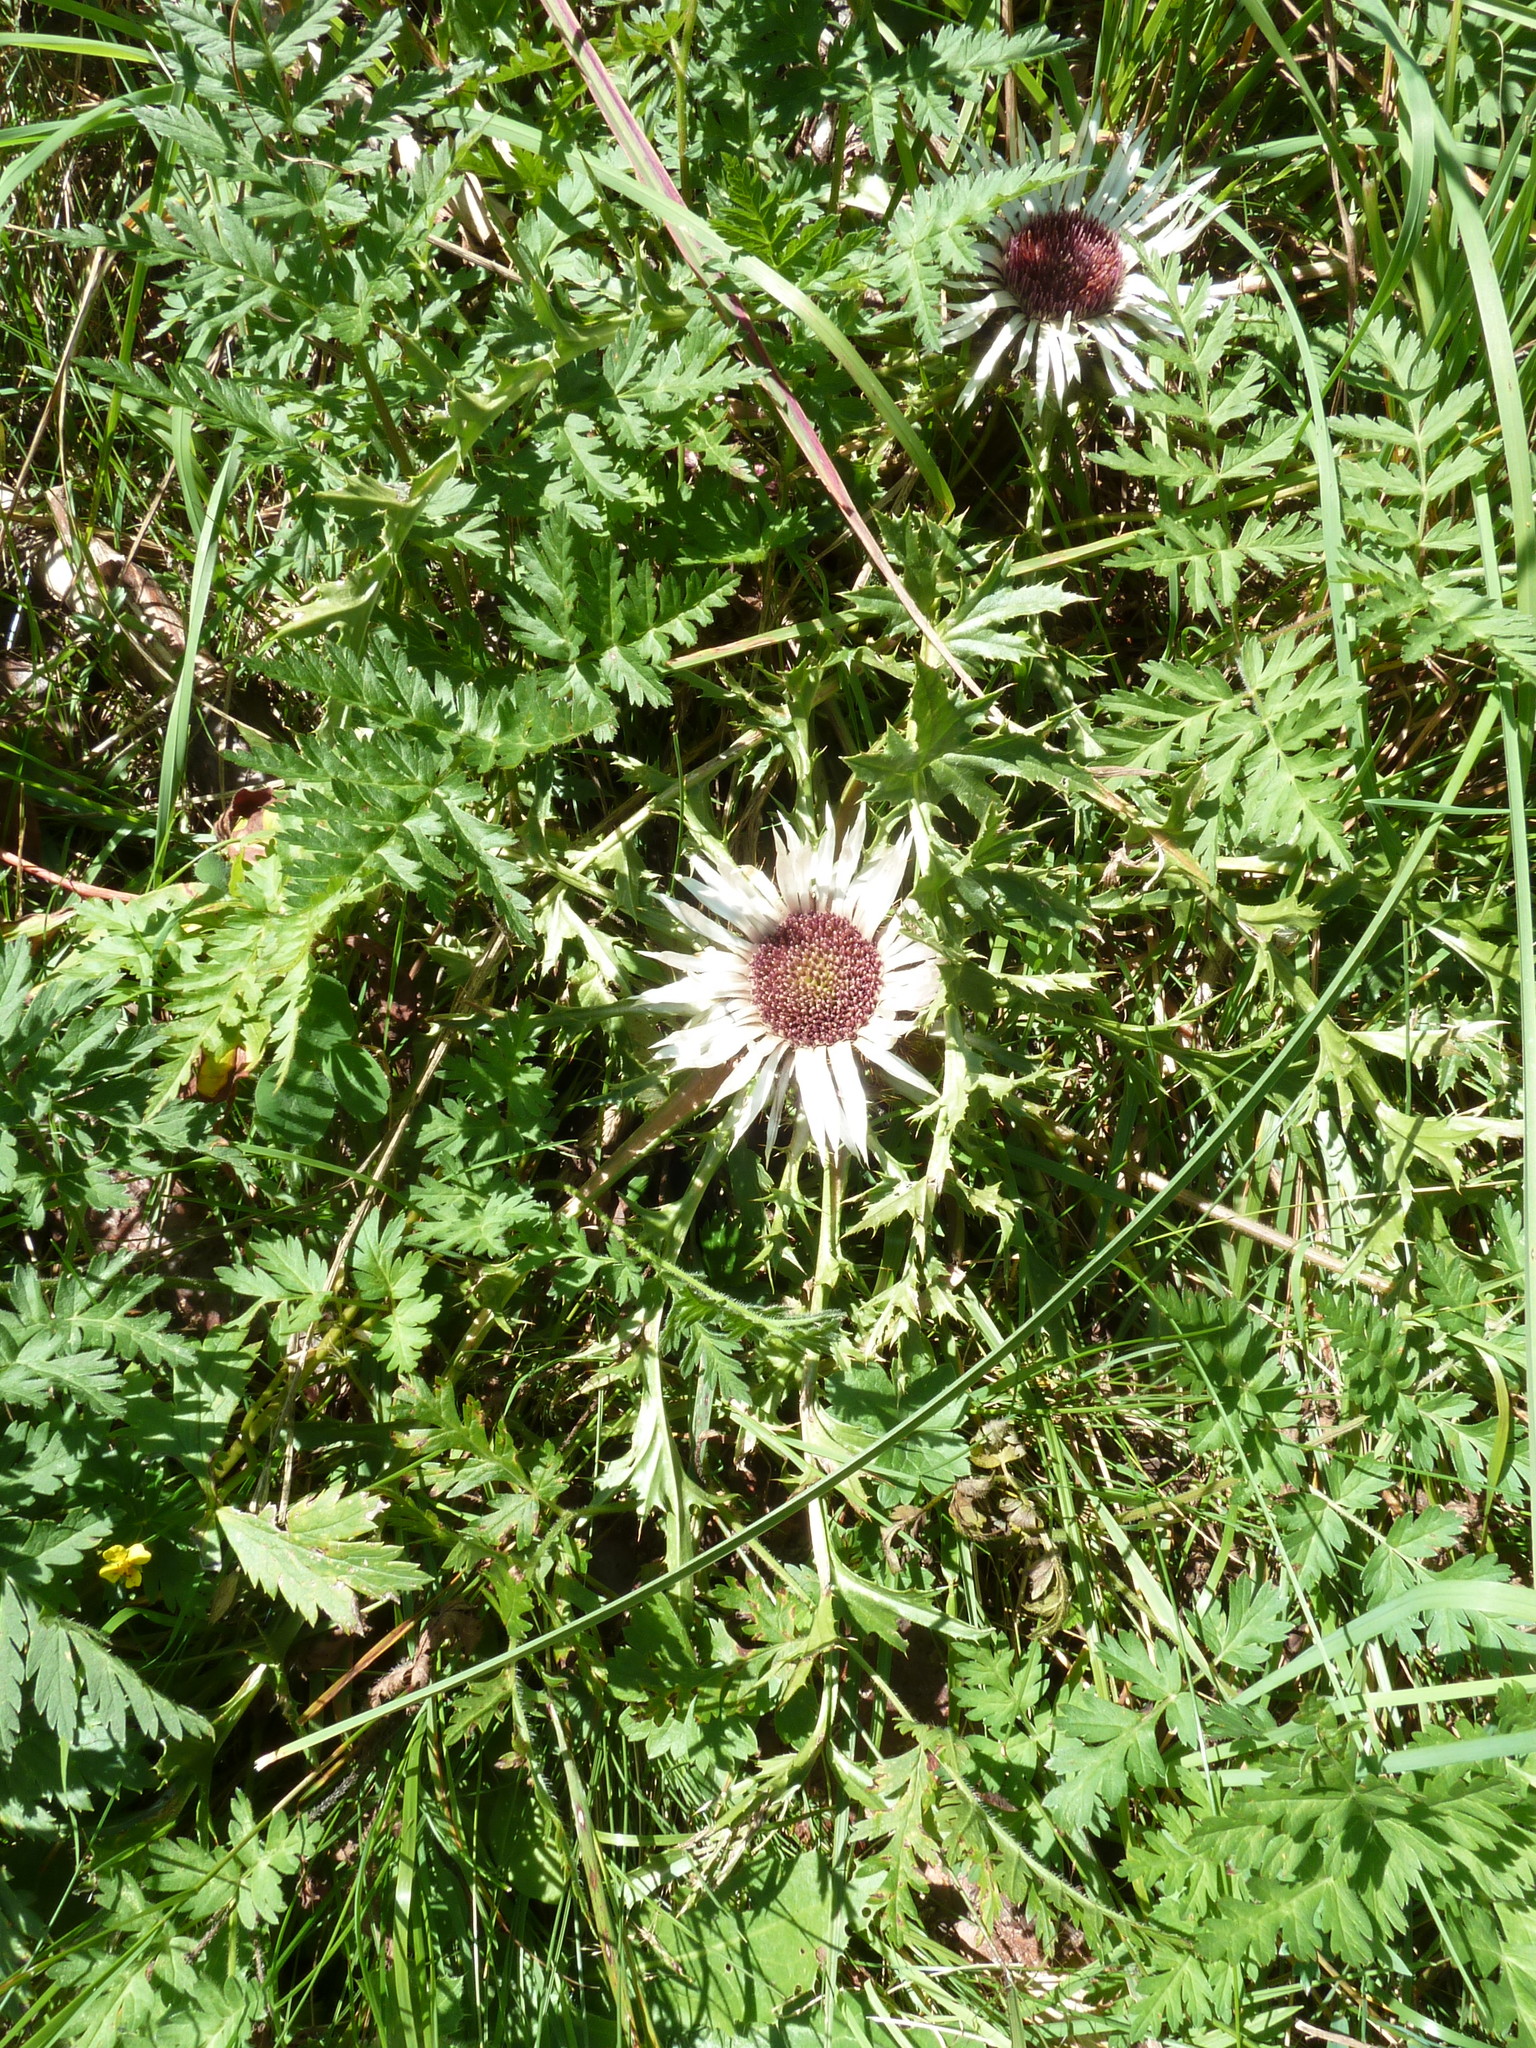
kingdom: Plantae
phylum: Tracheophyta
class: Magnoliopsida
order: Asterales
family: Asteraceae
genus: Carlina
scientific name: Carlina acaulis
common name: Stemless carline thistle
